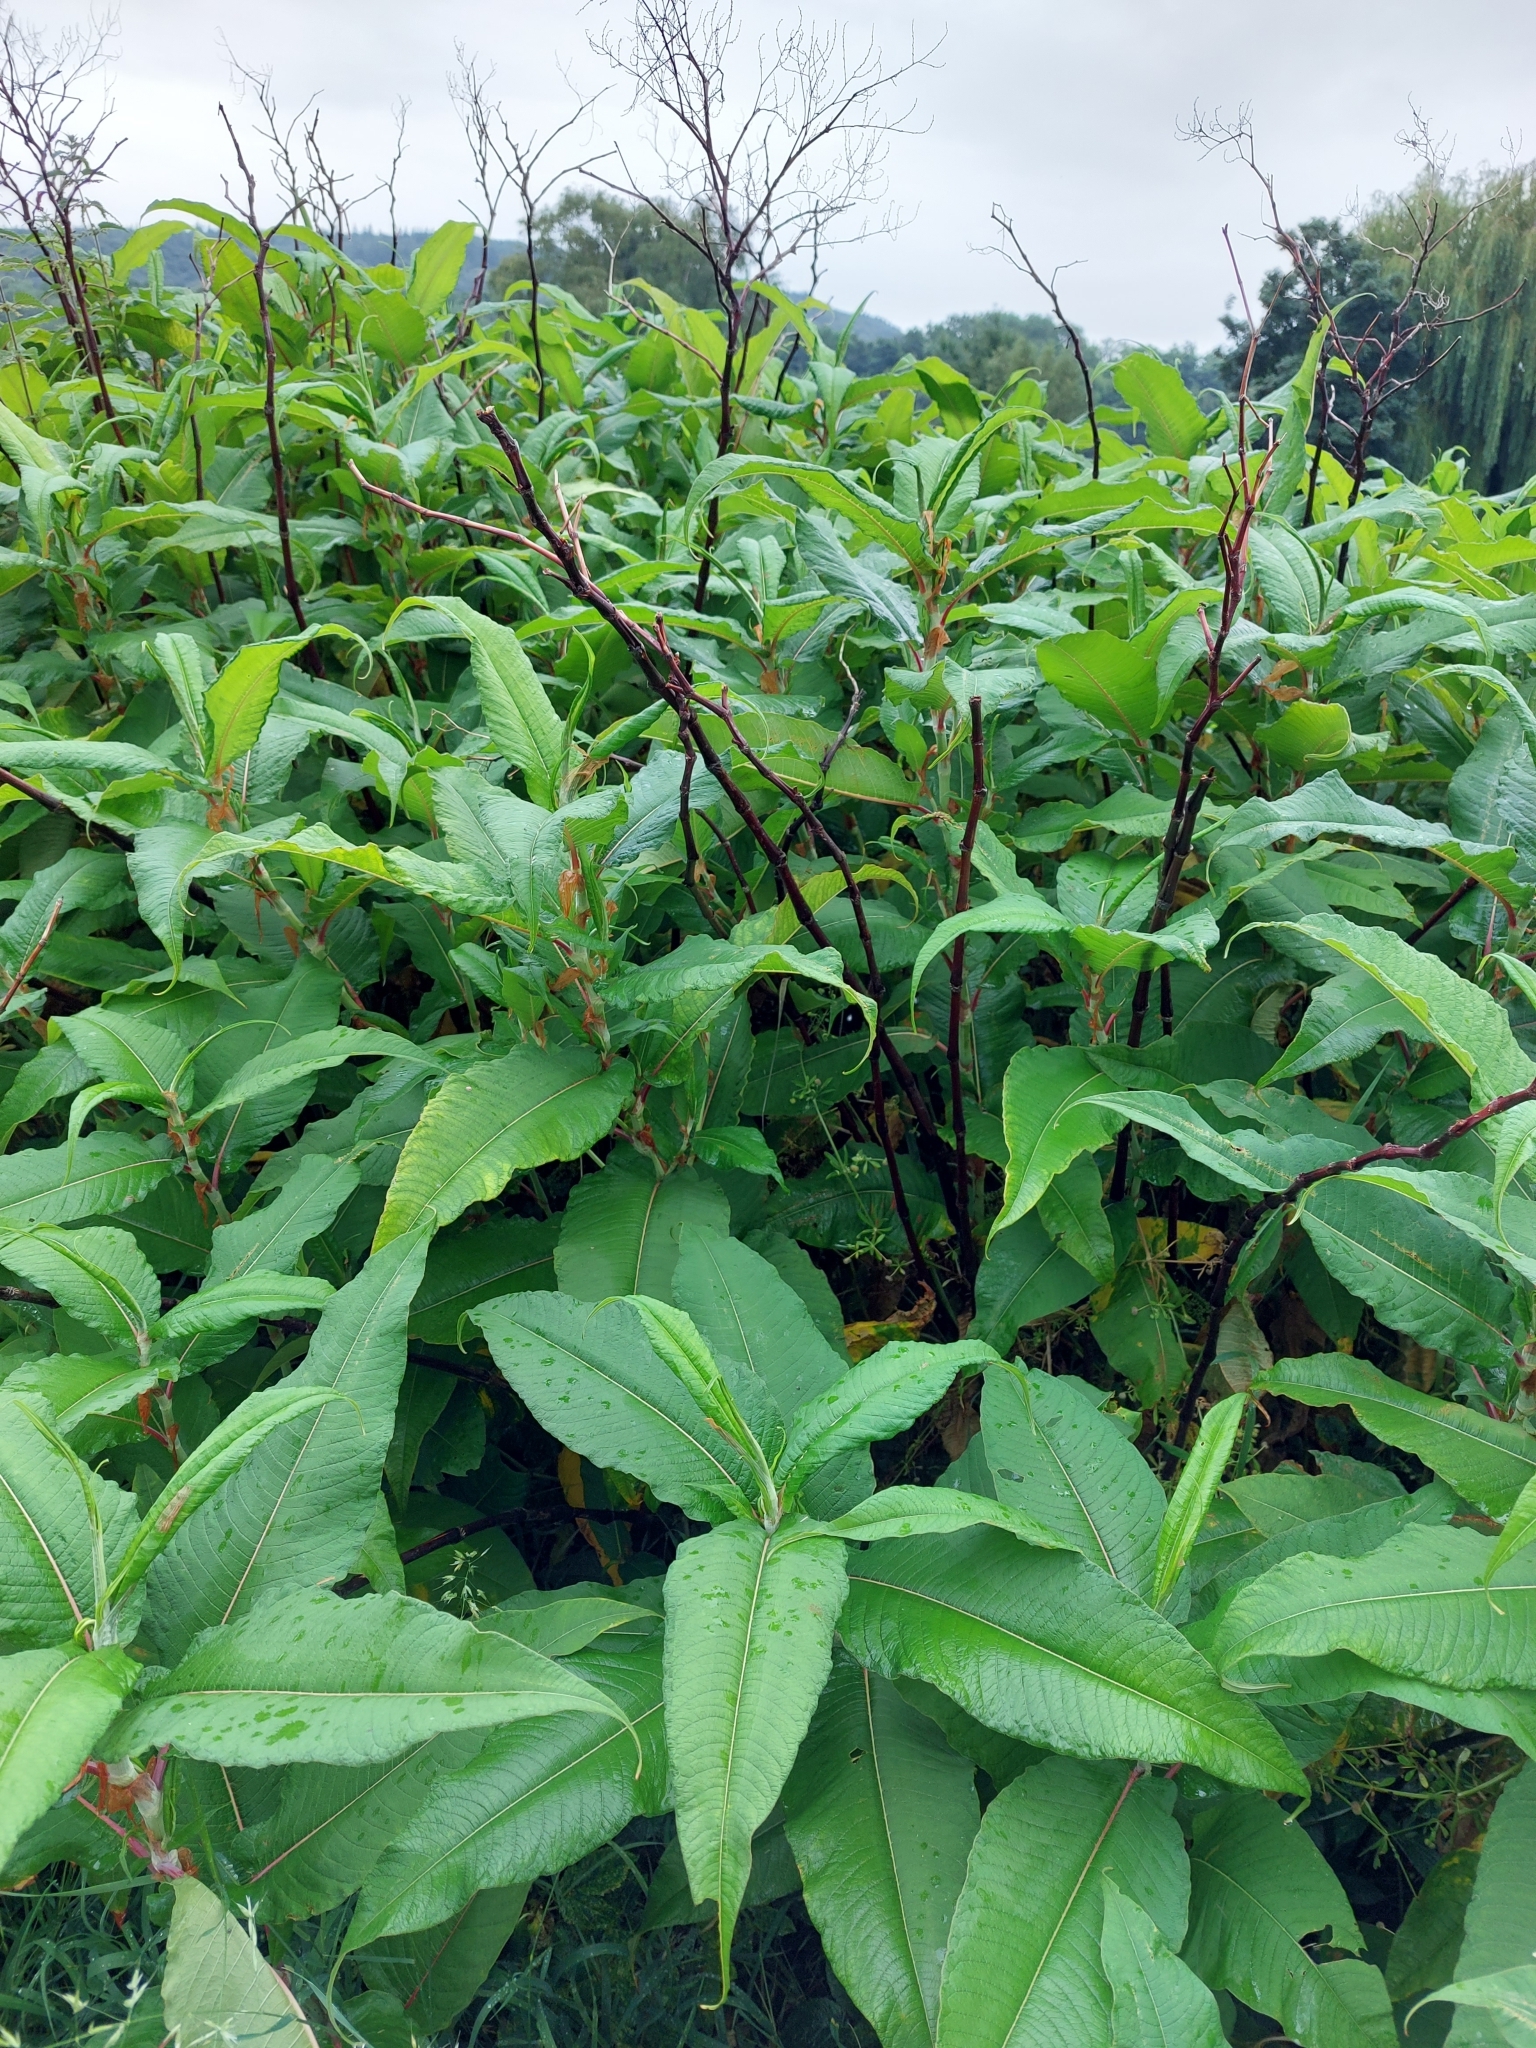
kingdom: Plantae
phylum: Tracheophyta
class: Magnoliopsida
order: Caryophyllales
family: Polygonaceae
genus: Koenigia
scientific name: Koenigia polystachya
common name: Himalayan knotweed
